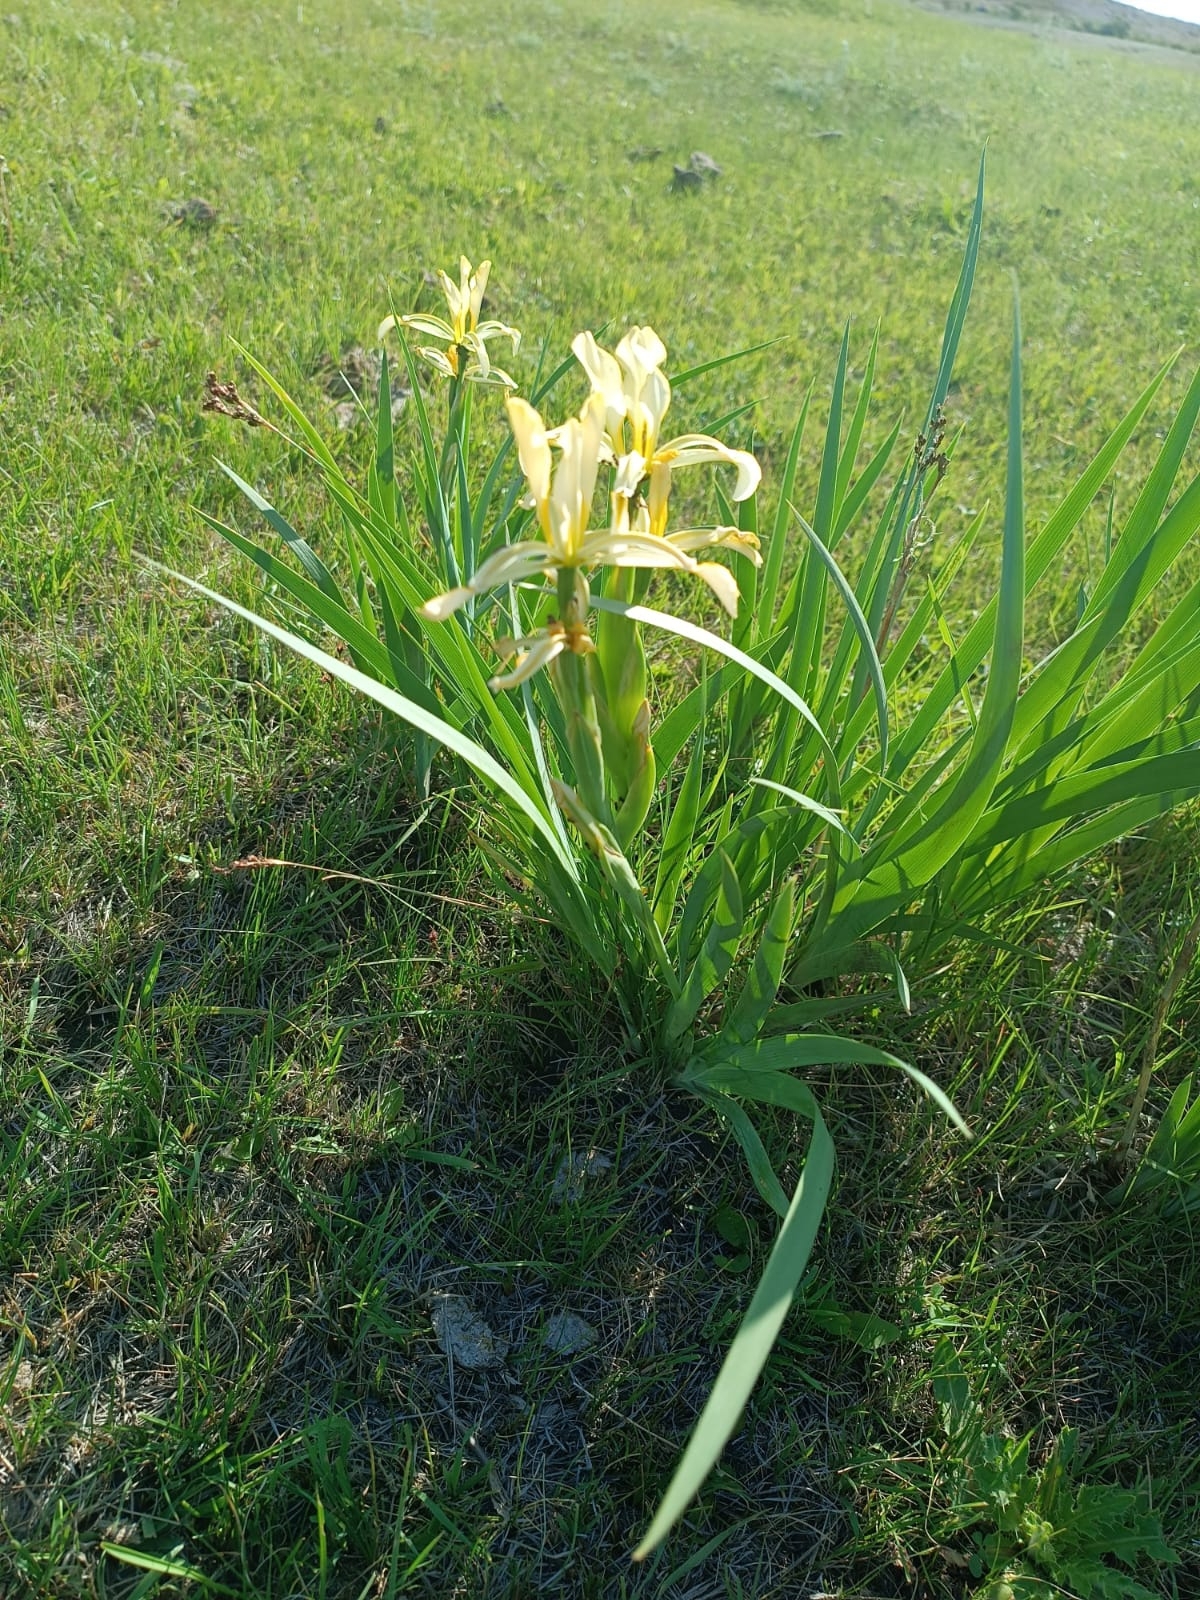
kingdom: Plantae
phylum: Tracheophyta
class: Liliopsida
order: Asparagales
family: Iridaceae
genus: Iris
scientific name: Iris halophila
